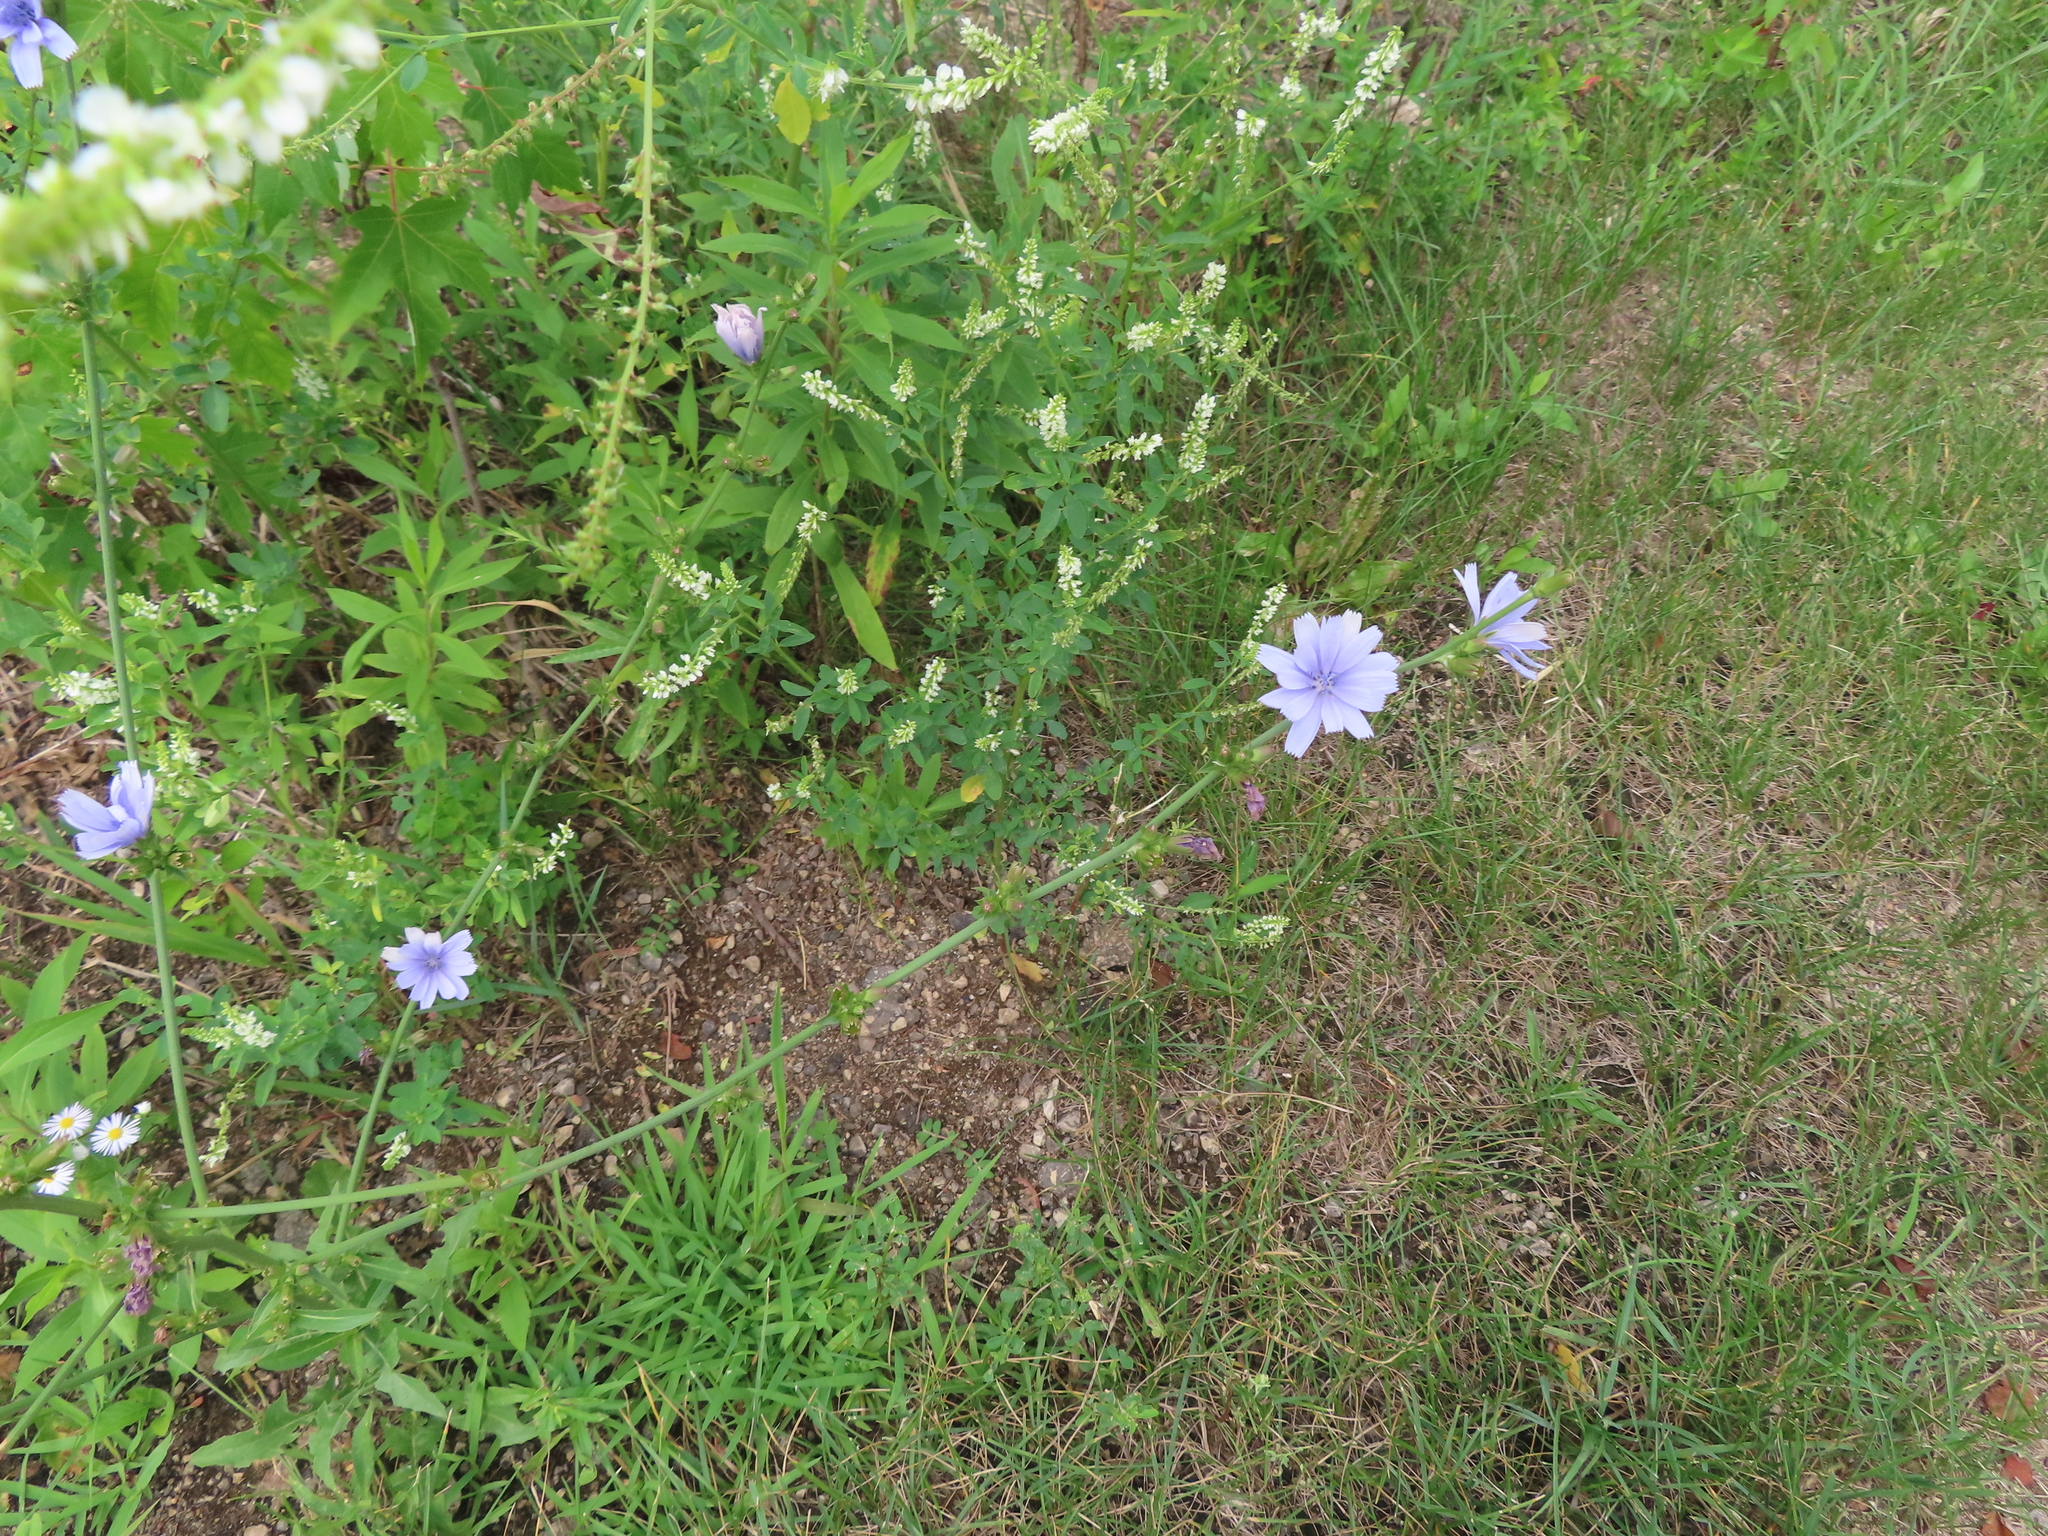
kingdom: Plantae
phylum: Tracheophyta
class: Magnoliopsida
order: Asterales
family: Asteraceae
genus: Cichorium
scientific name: Cichorium intybus
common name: Chicory
